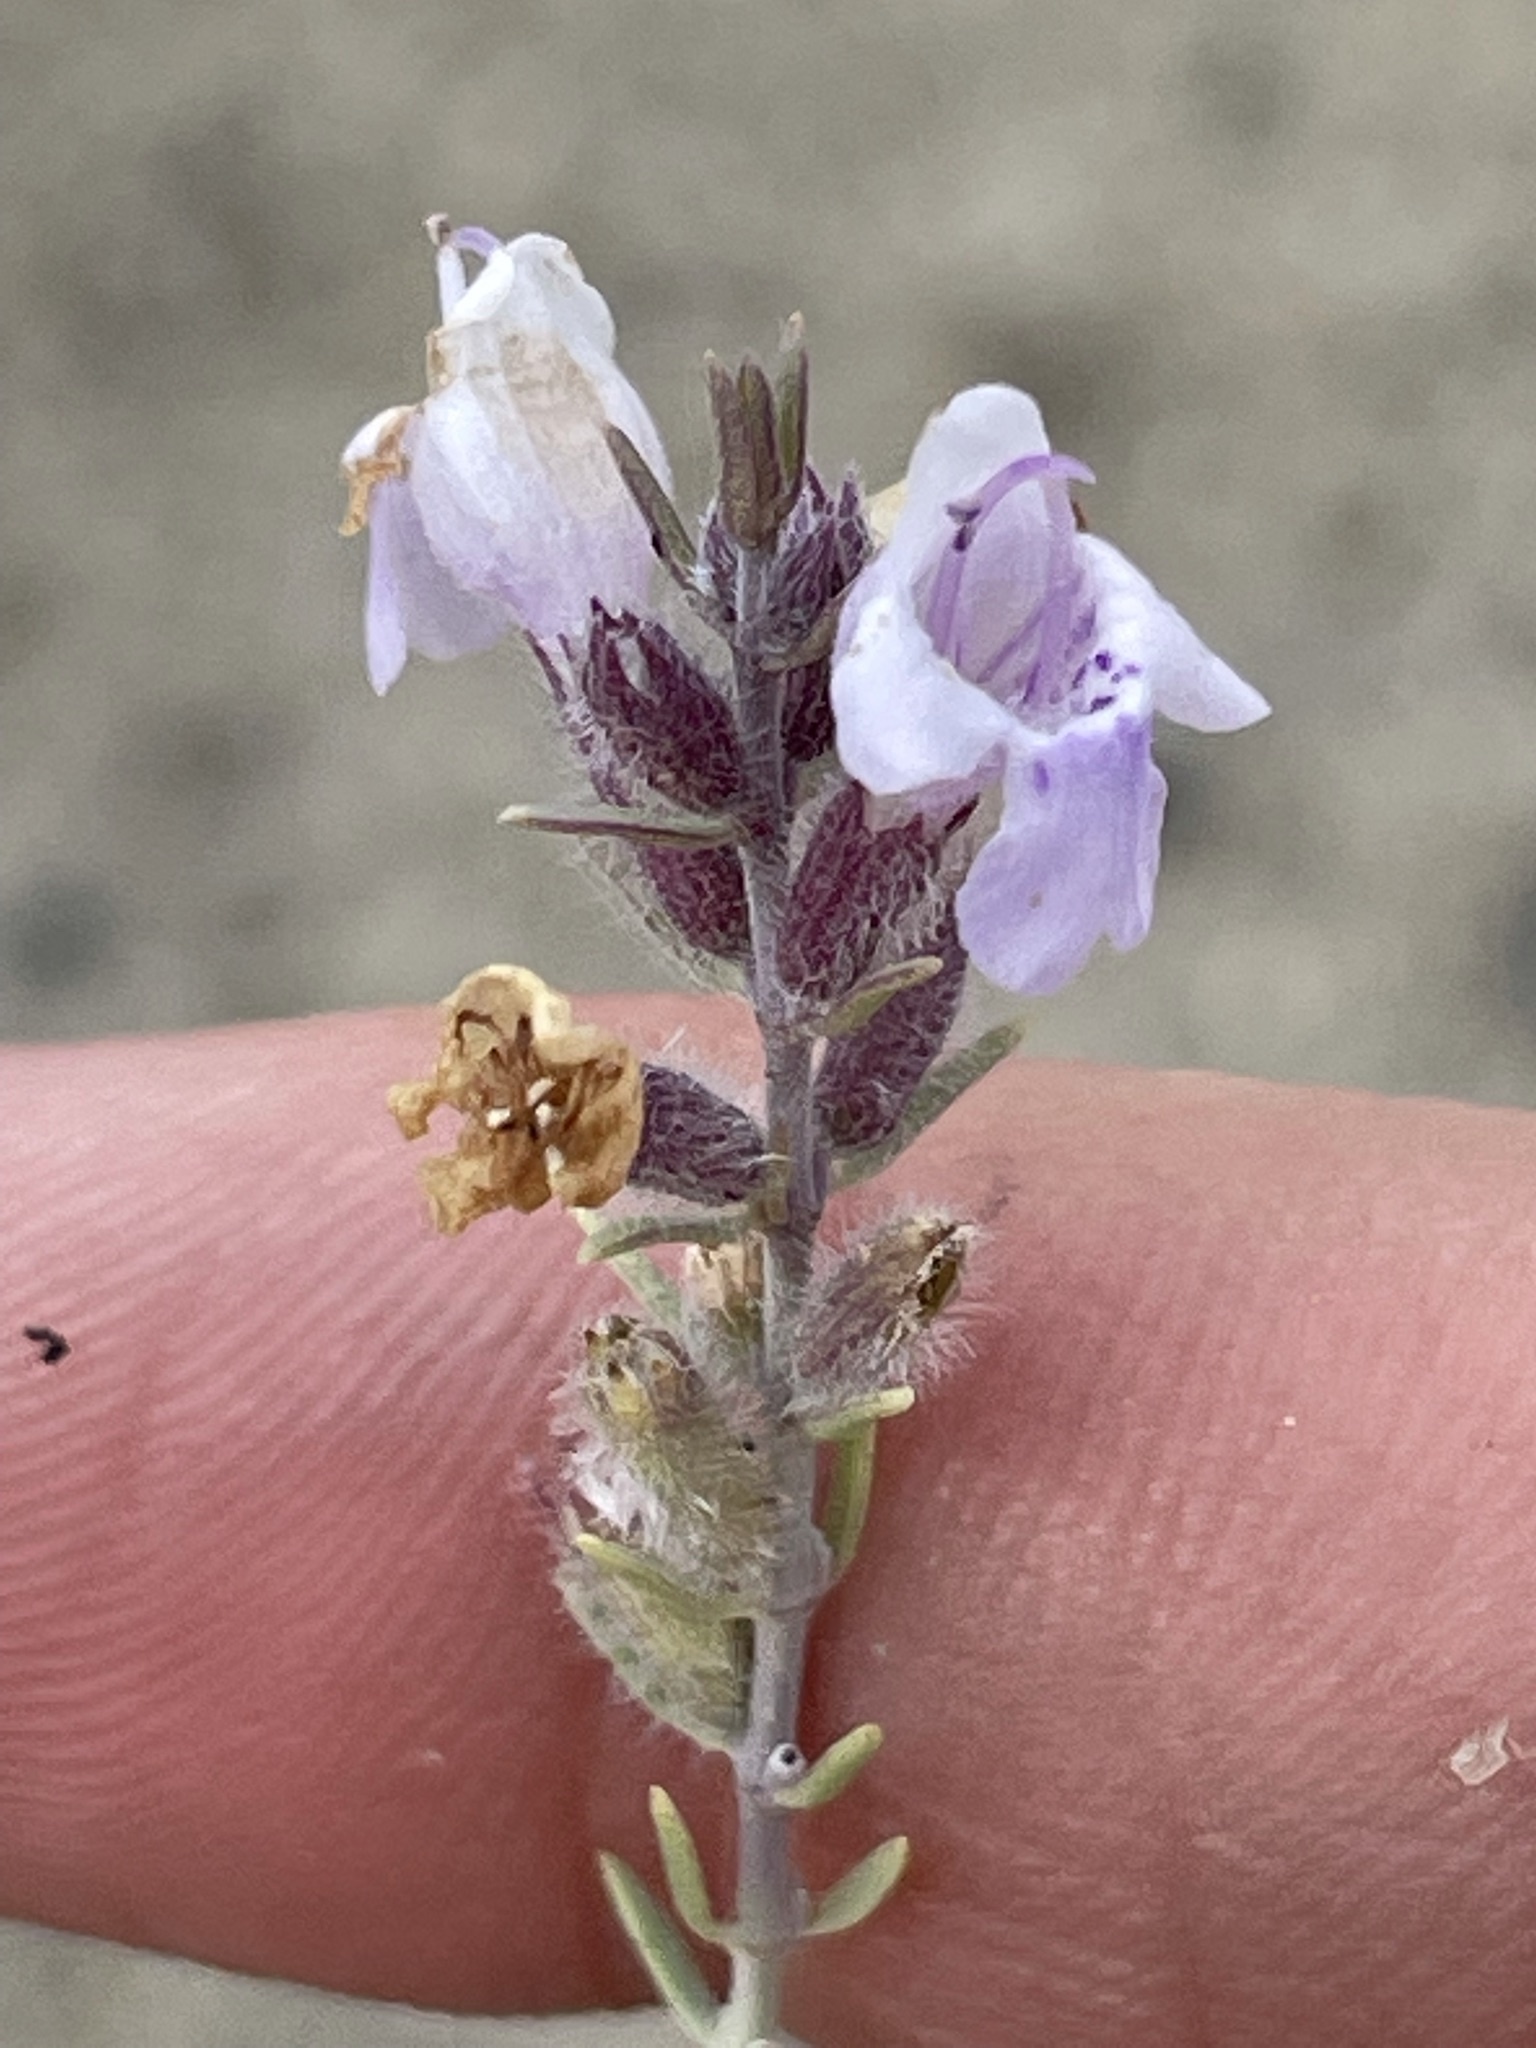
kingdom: Plantae
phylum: Tracheophyta
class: Magnoliopsida
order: Lamiales
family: Lamiaceae
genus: Poliomintha
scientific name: Poliomintha incana
